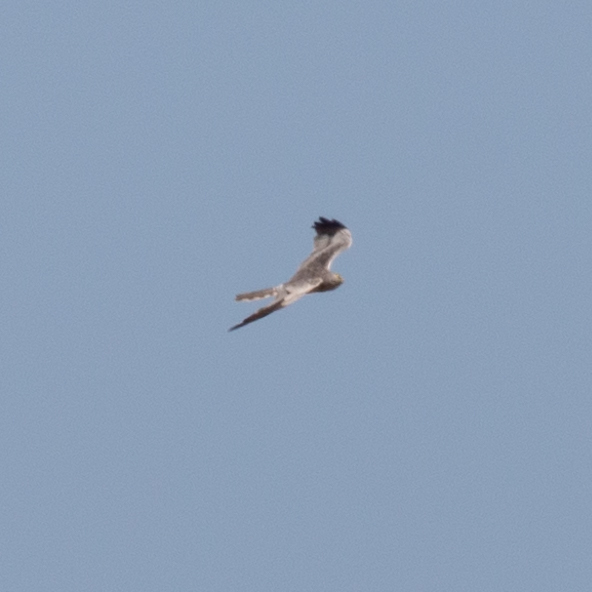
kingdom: Animalia
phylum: Chordata
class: Aves
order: Accipitriformes
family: Accipitridae
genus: Circus
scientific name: Circus pygargus
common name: Montagu's harrier
